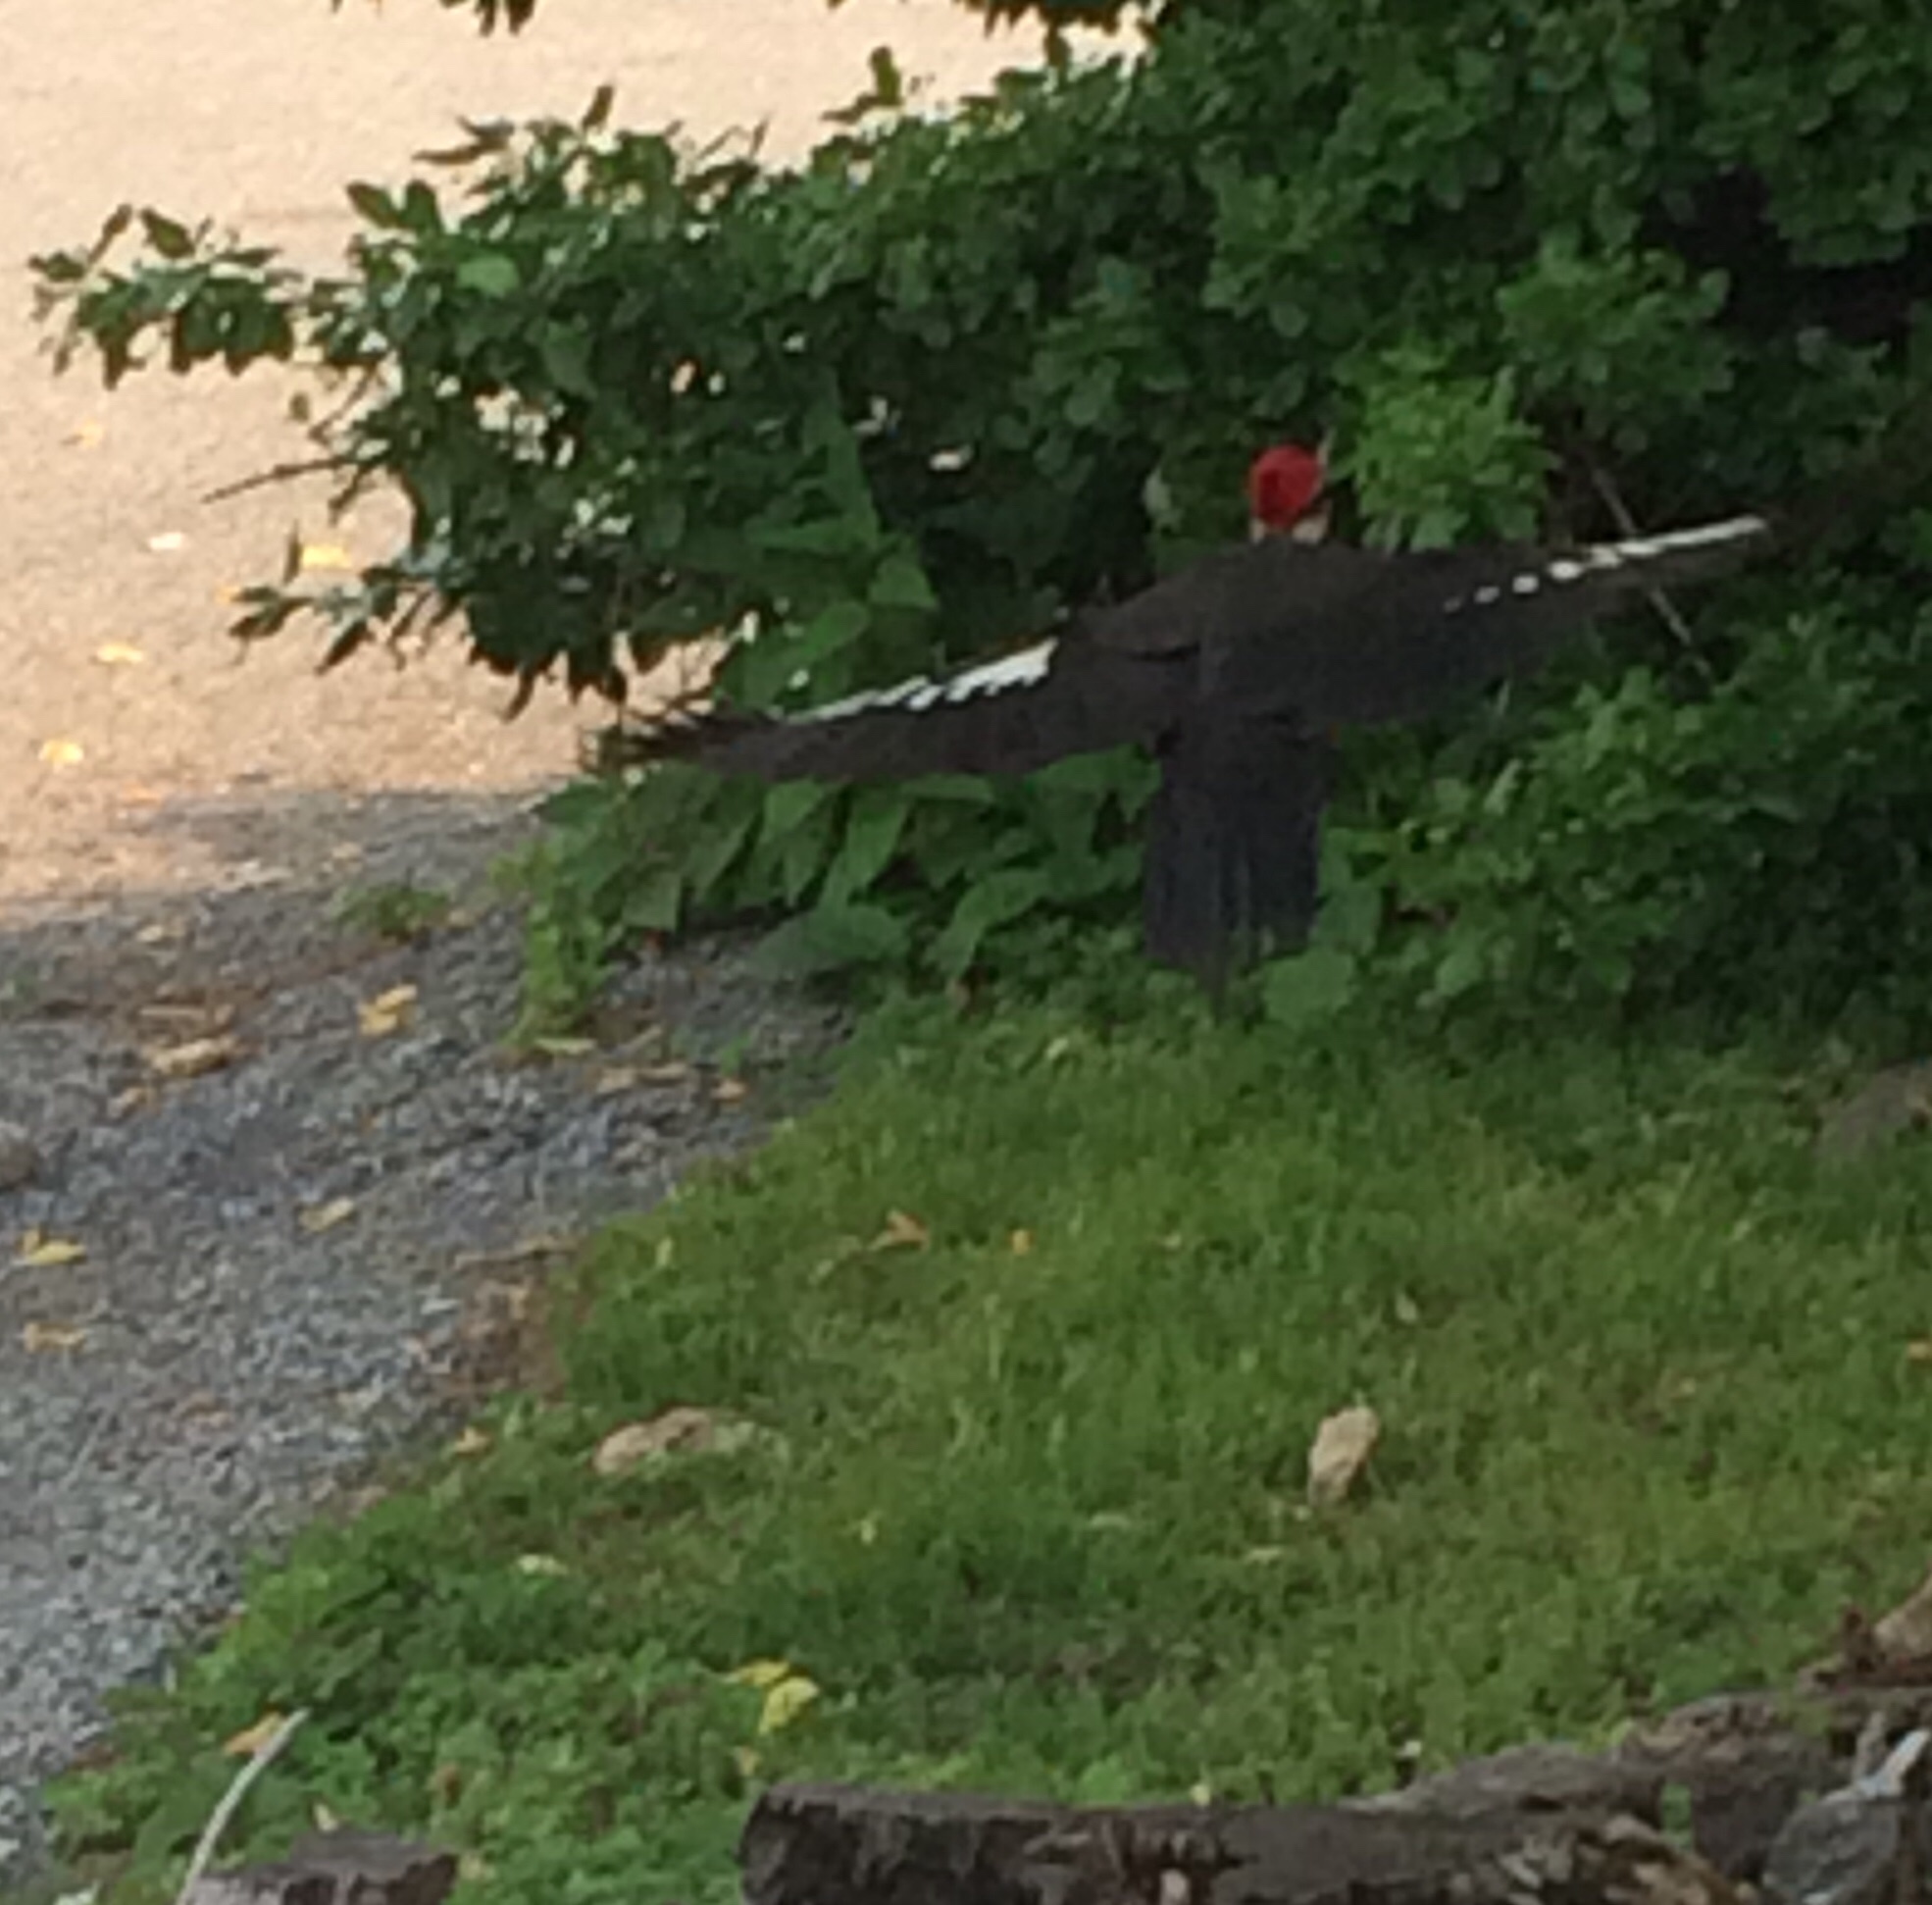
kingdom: Animalia
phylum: Chordata
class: Aves
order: Piciformes
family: Picidae
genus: Dryocopus
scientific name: Dryocopus pileatus
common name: Pileated woodpecker
